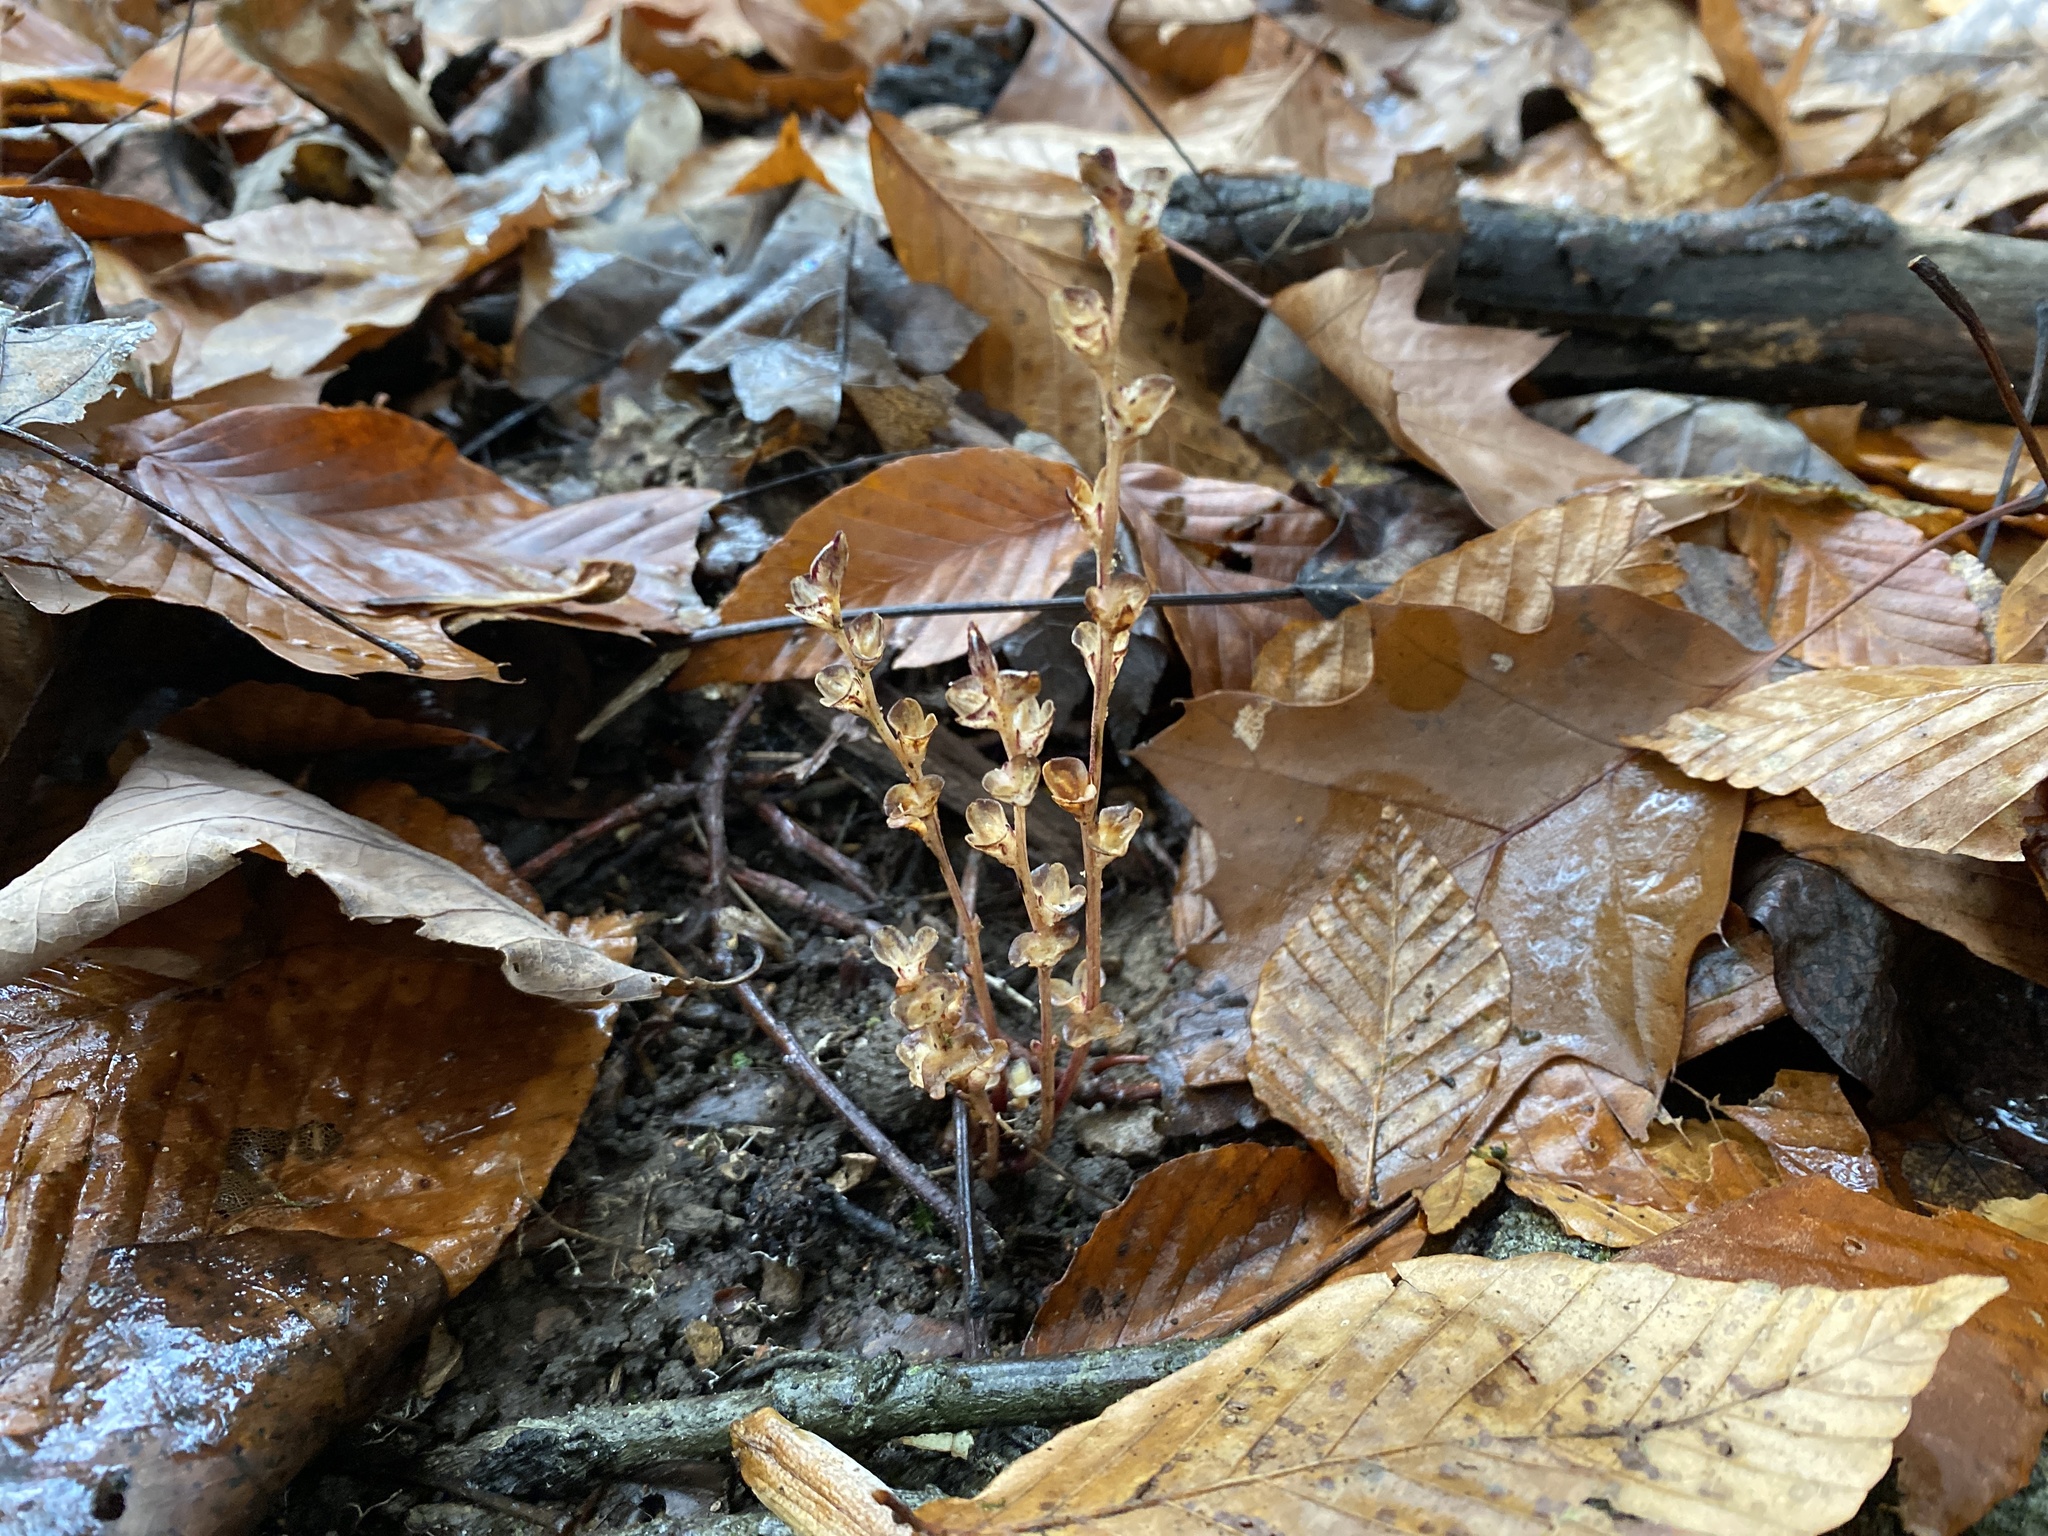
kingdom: Plantae
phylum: Tracheophyta
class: Magnoliopsida
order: Lamiales
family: Orobanchaceae
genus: Epifagus
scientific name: Epifagus virginiana
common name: Beechdrops
